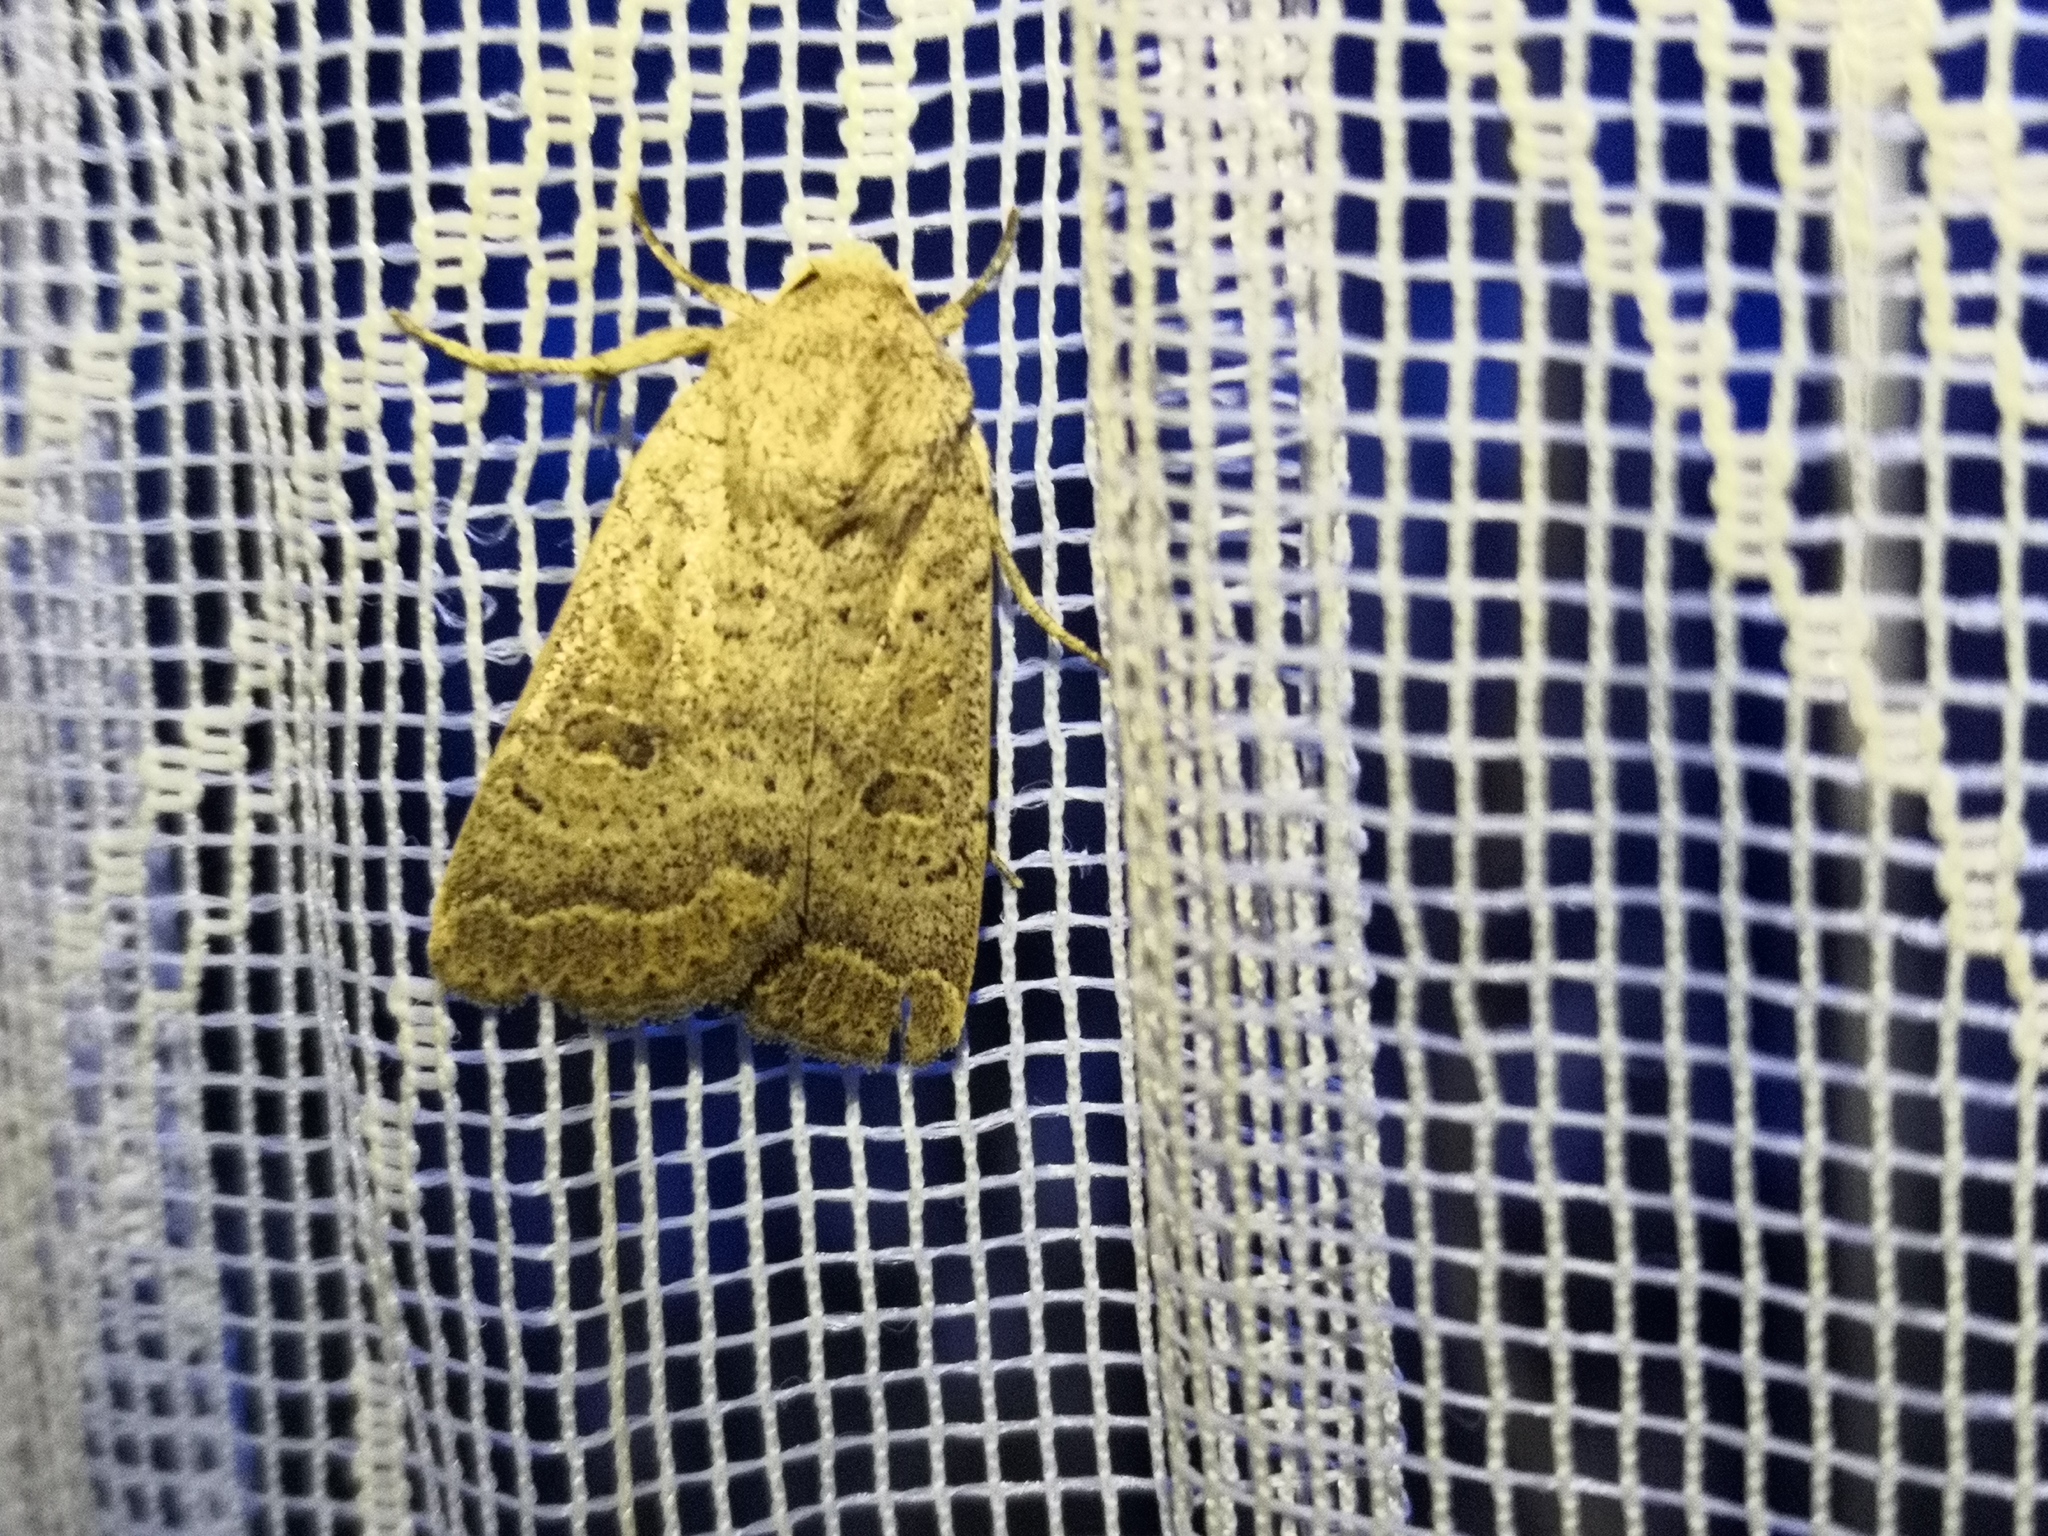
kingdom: Animalia
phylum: Arthropoda
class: Insecta
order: Lepidoptera
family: Noctuidae
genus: Hoplodrina
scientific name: Hoplodrina superstes
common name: Powdered rustic
